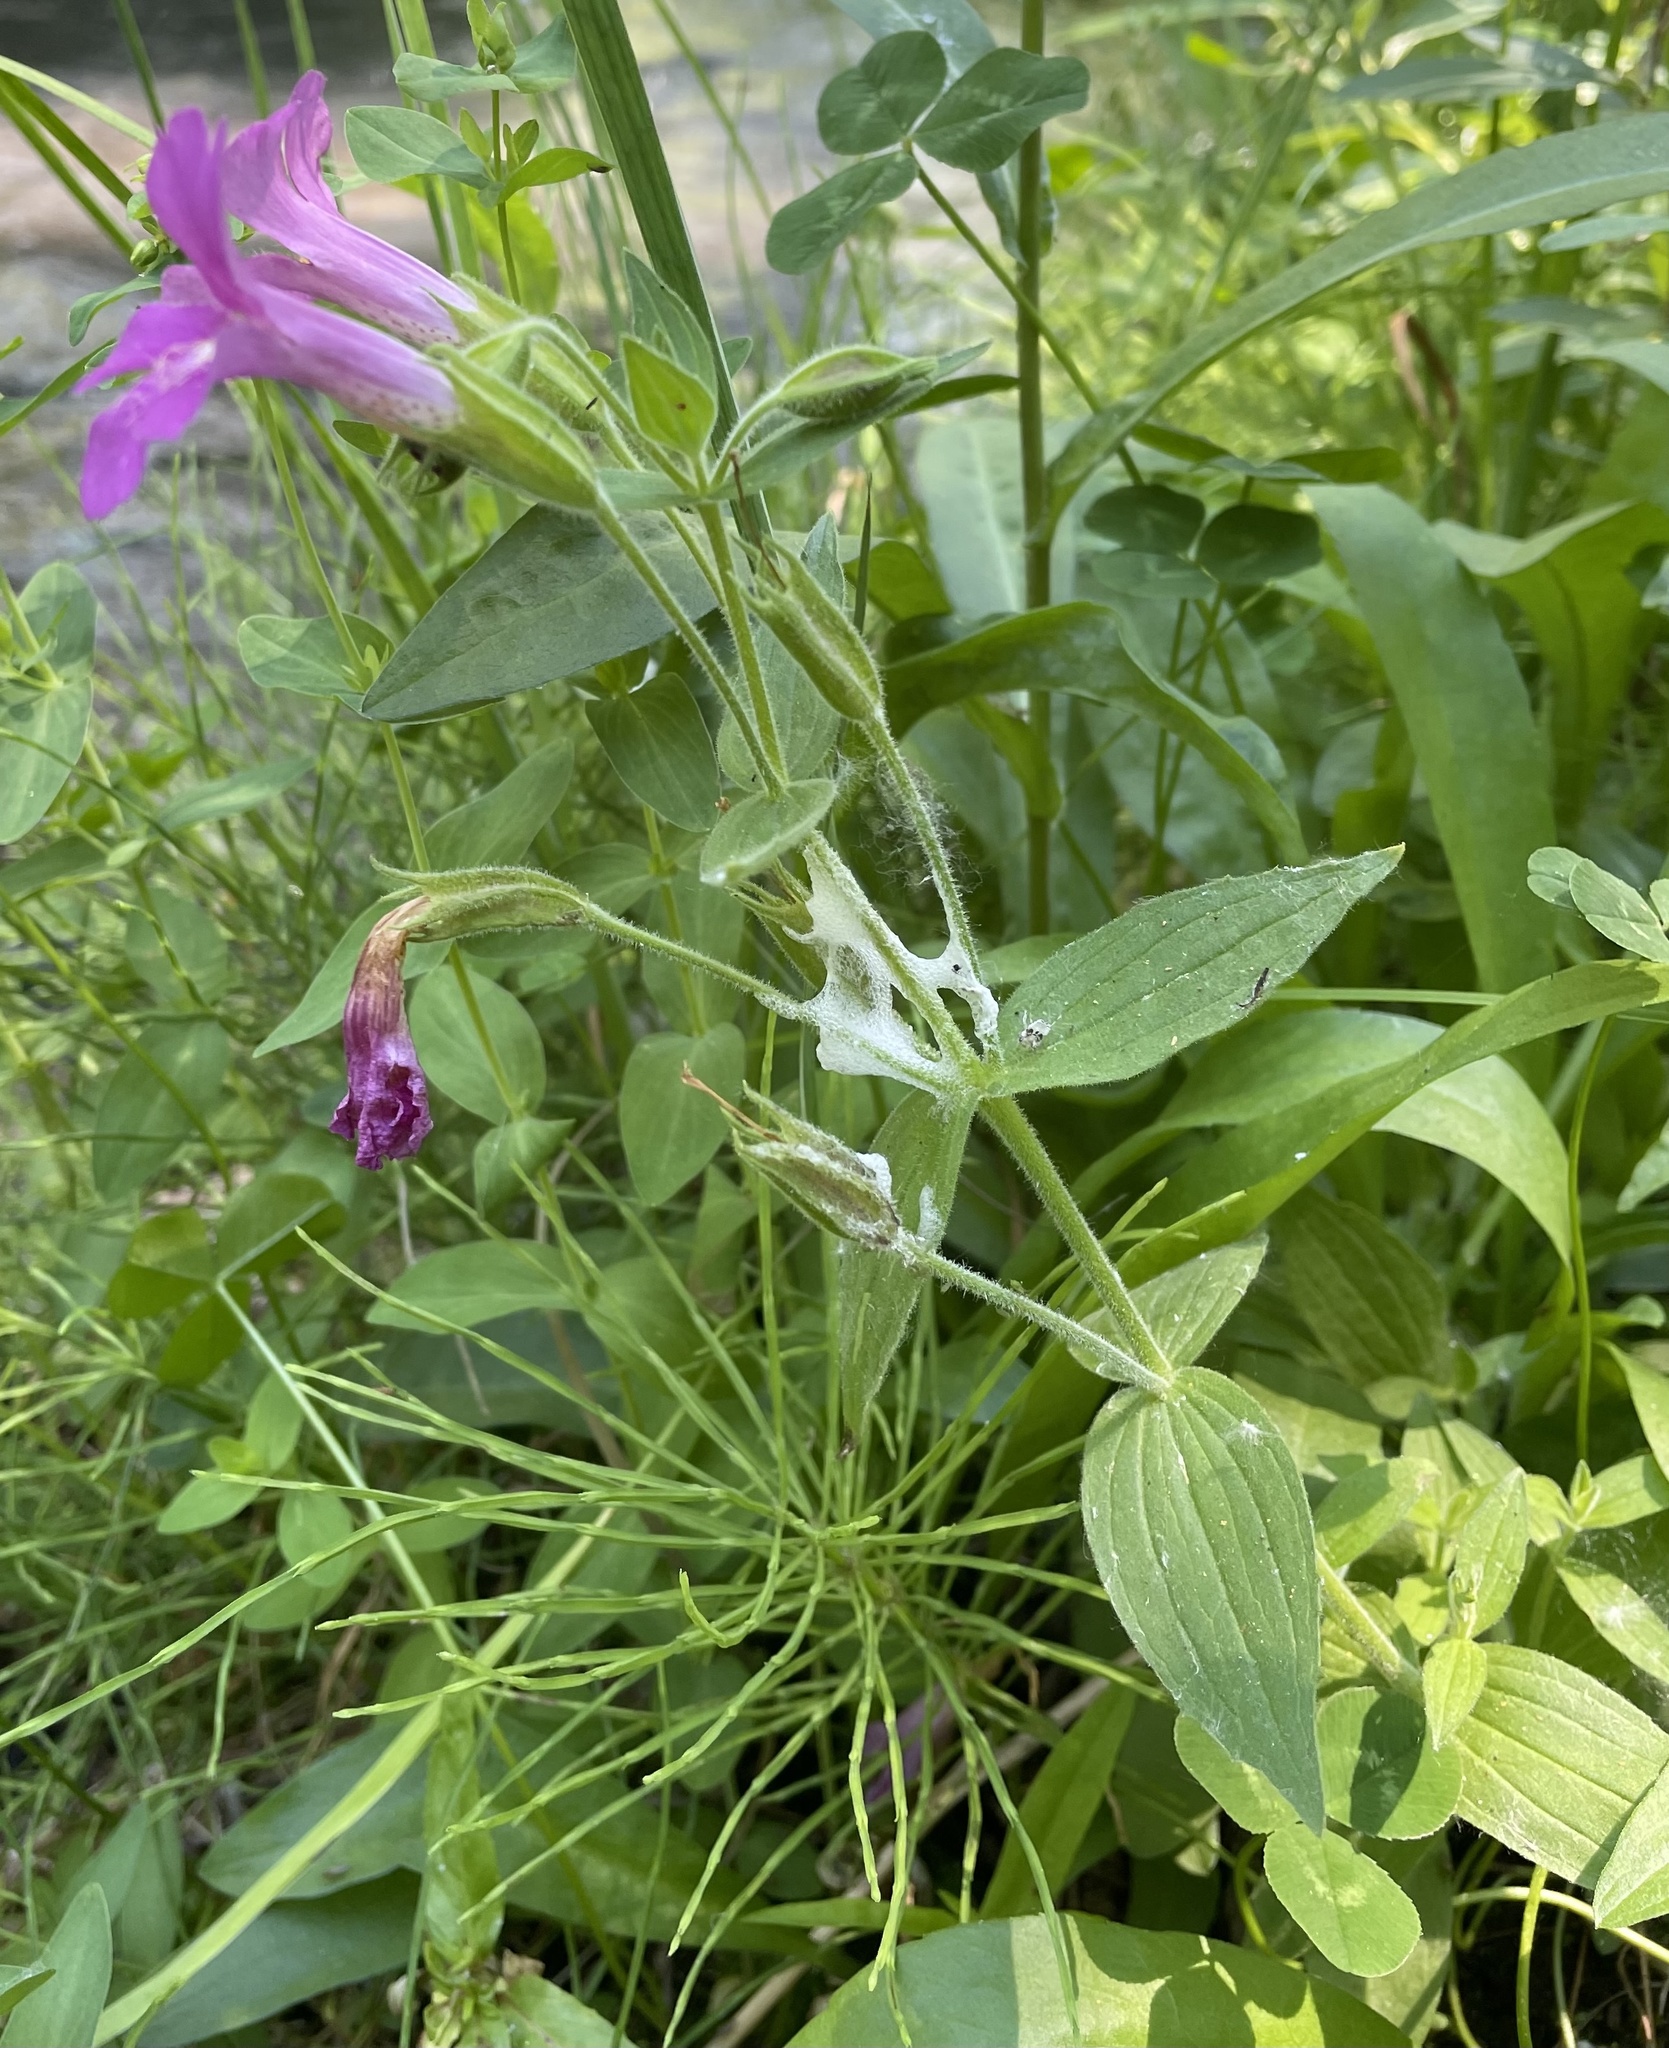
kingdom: Plantae
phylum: Tracheophyta
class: Magnoliopsida
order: Lamiales
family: Phrymaceae
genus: Erythranthe
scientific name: Erythranthe lewisii
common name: Lewis's monkey-flower
